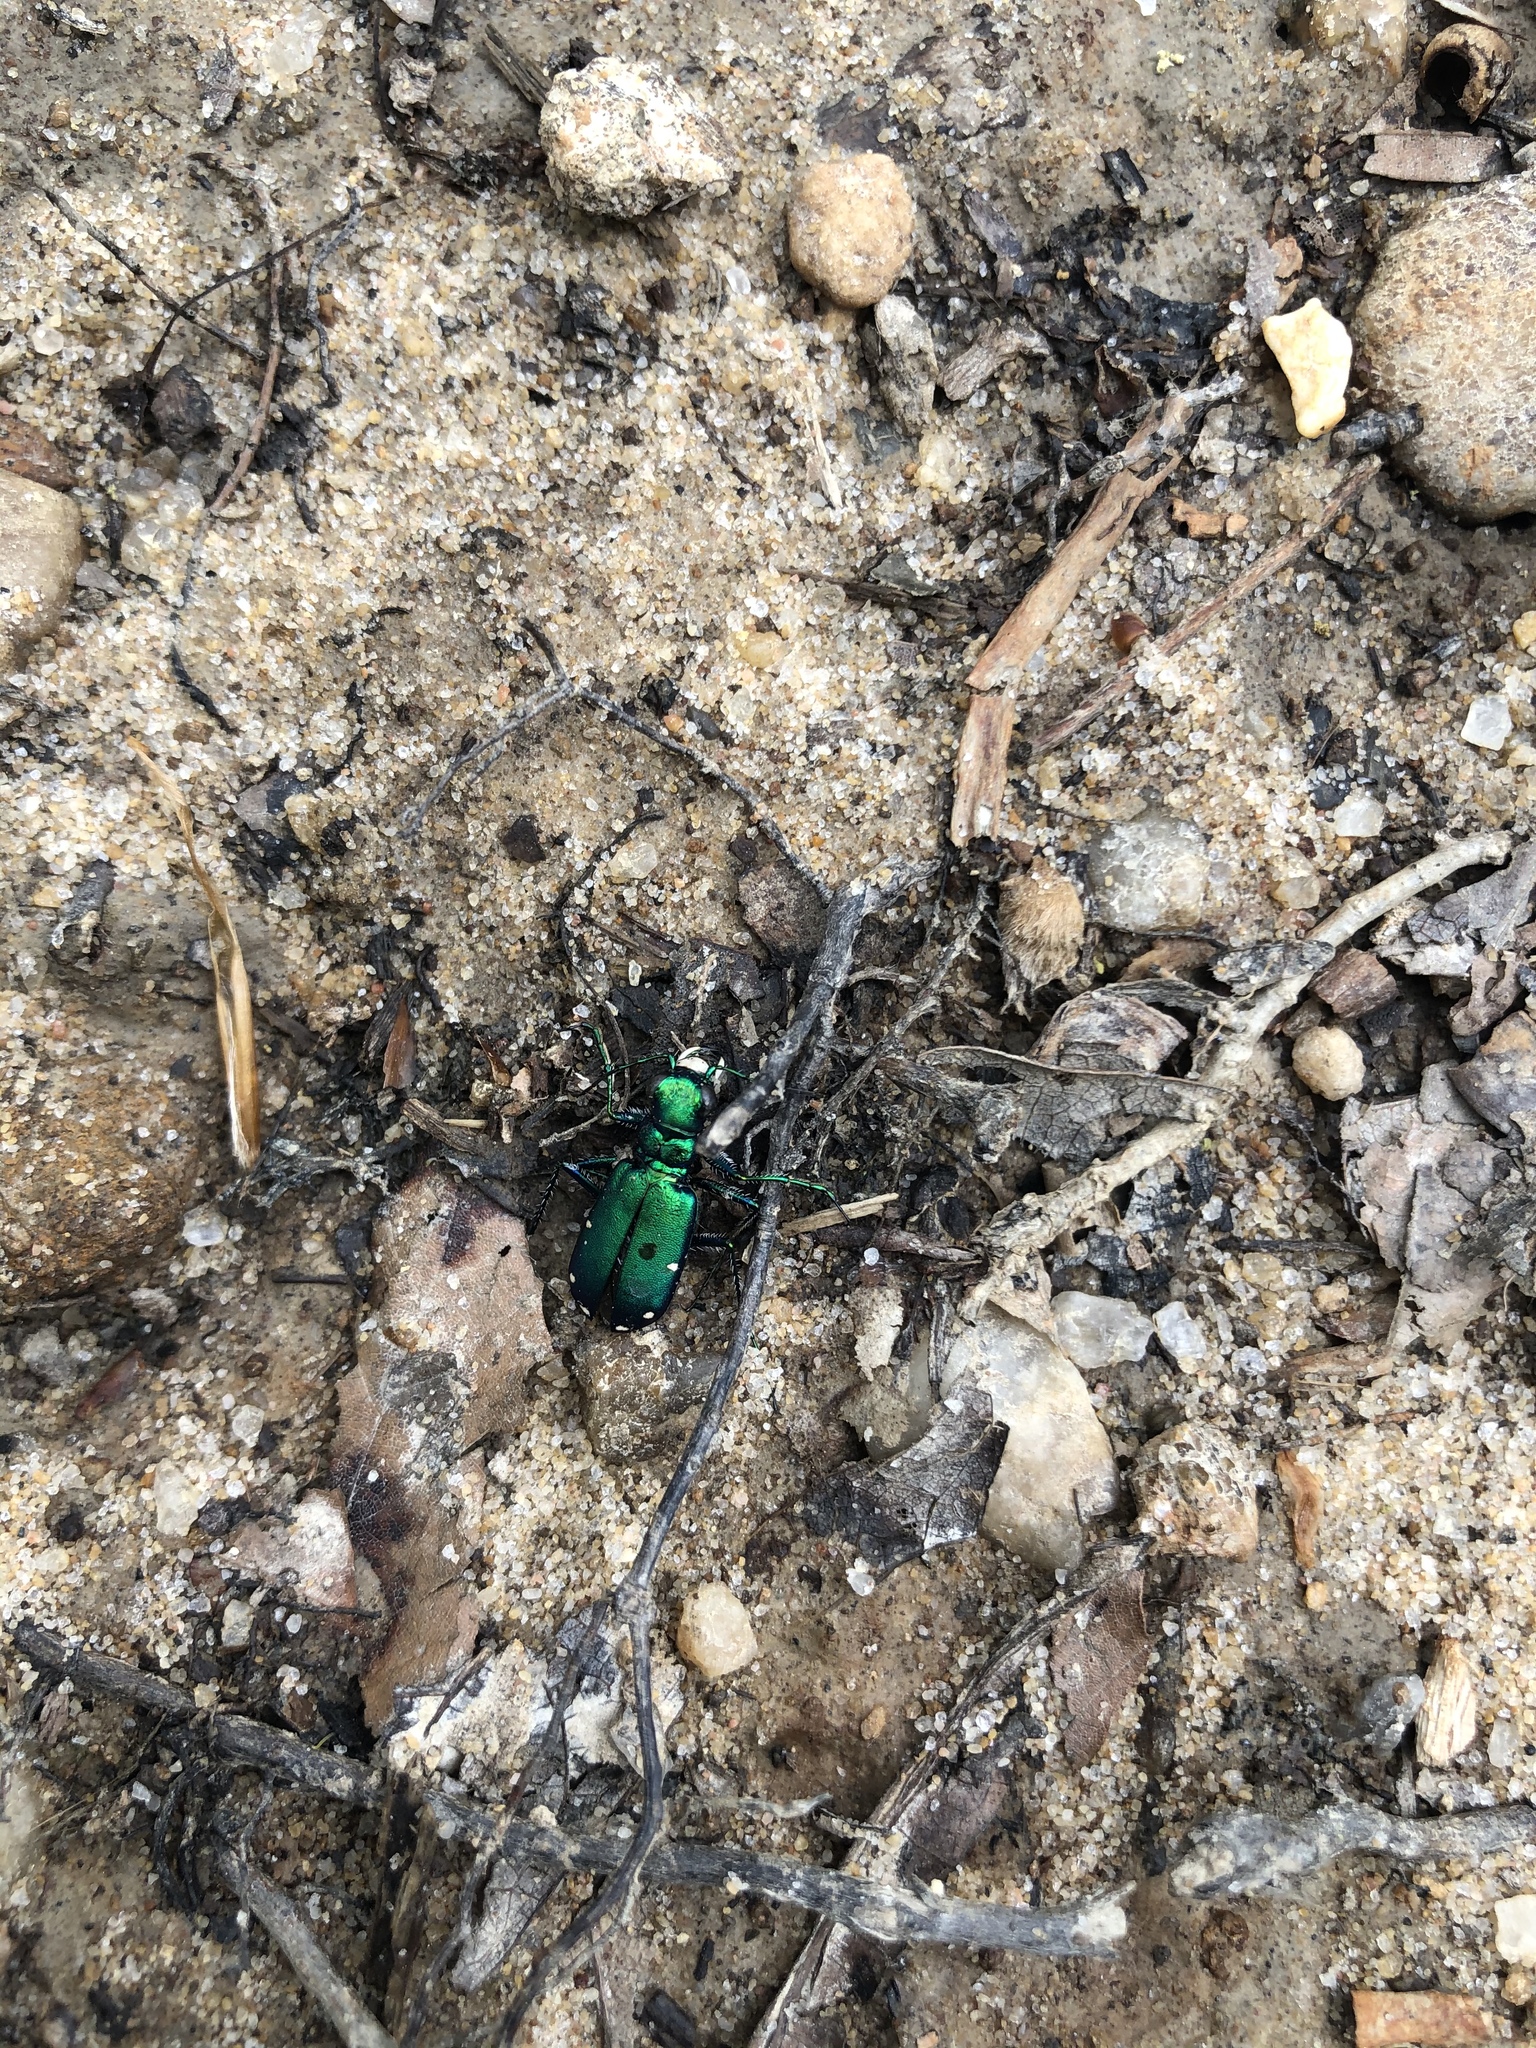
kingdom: Animalia
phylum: Arthropoda
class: Insecta
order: Coleoptera
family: Carabidae
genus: Cicindela
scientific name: Cicindela sexguttata
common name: Six-spotted tiger beetle
